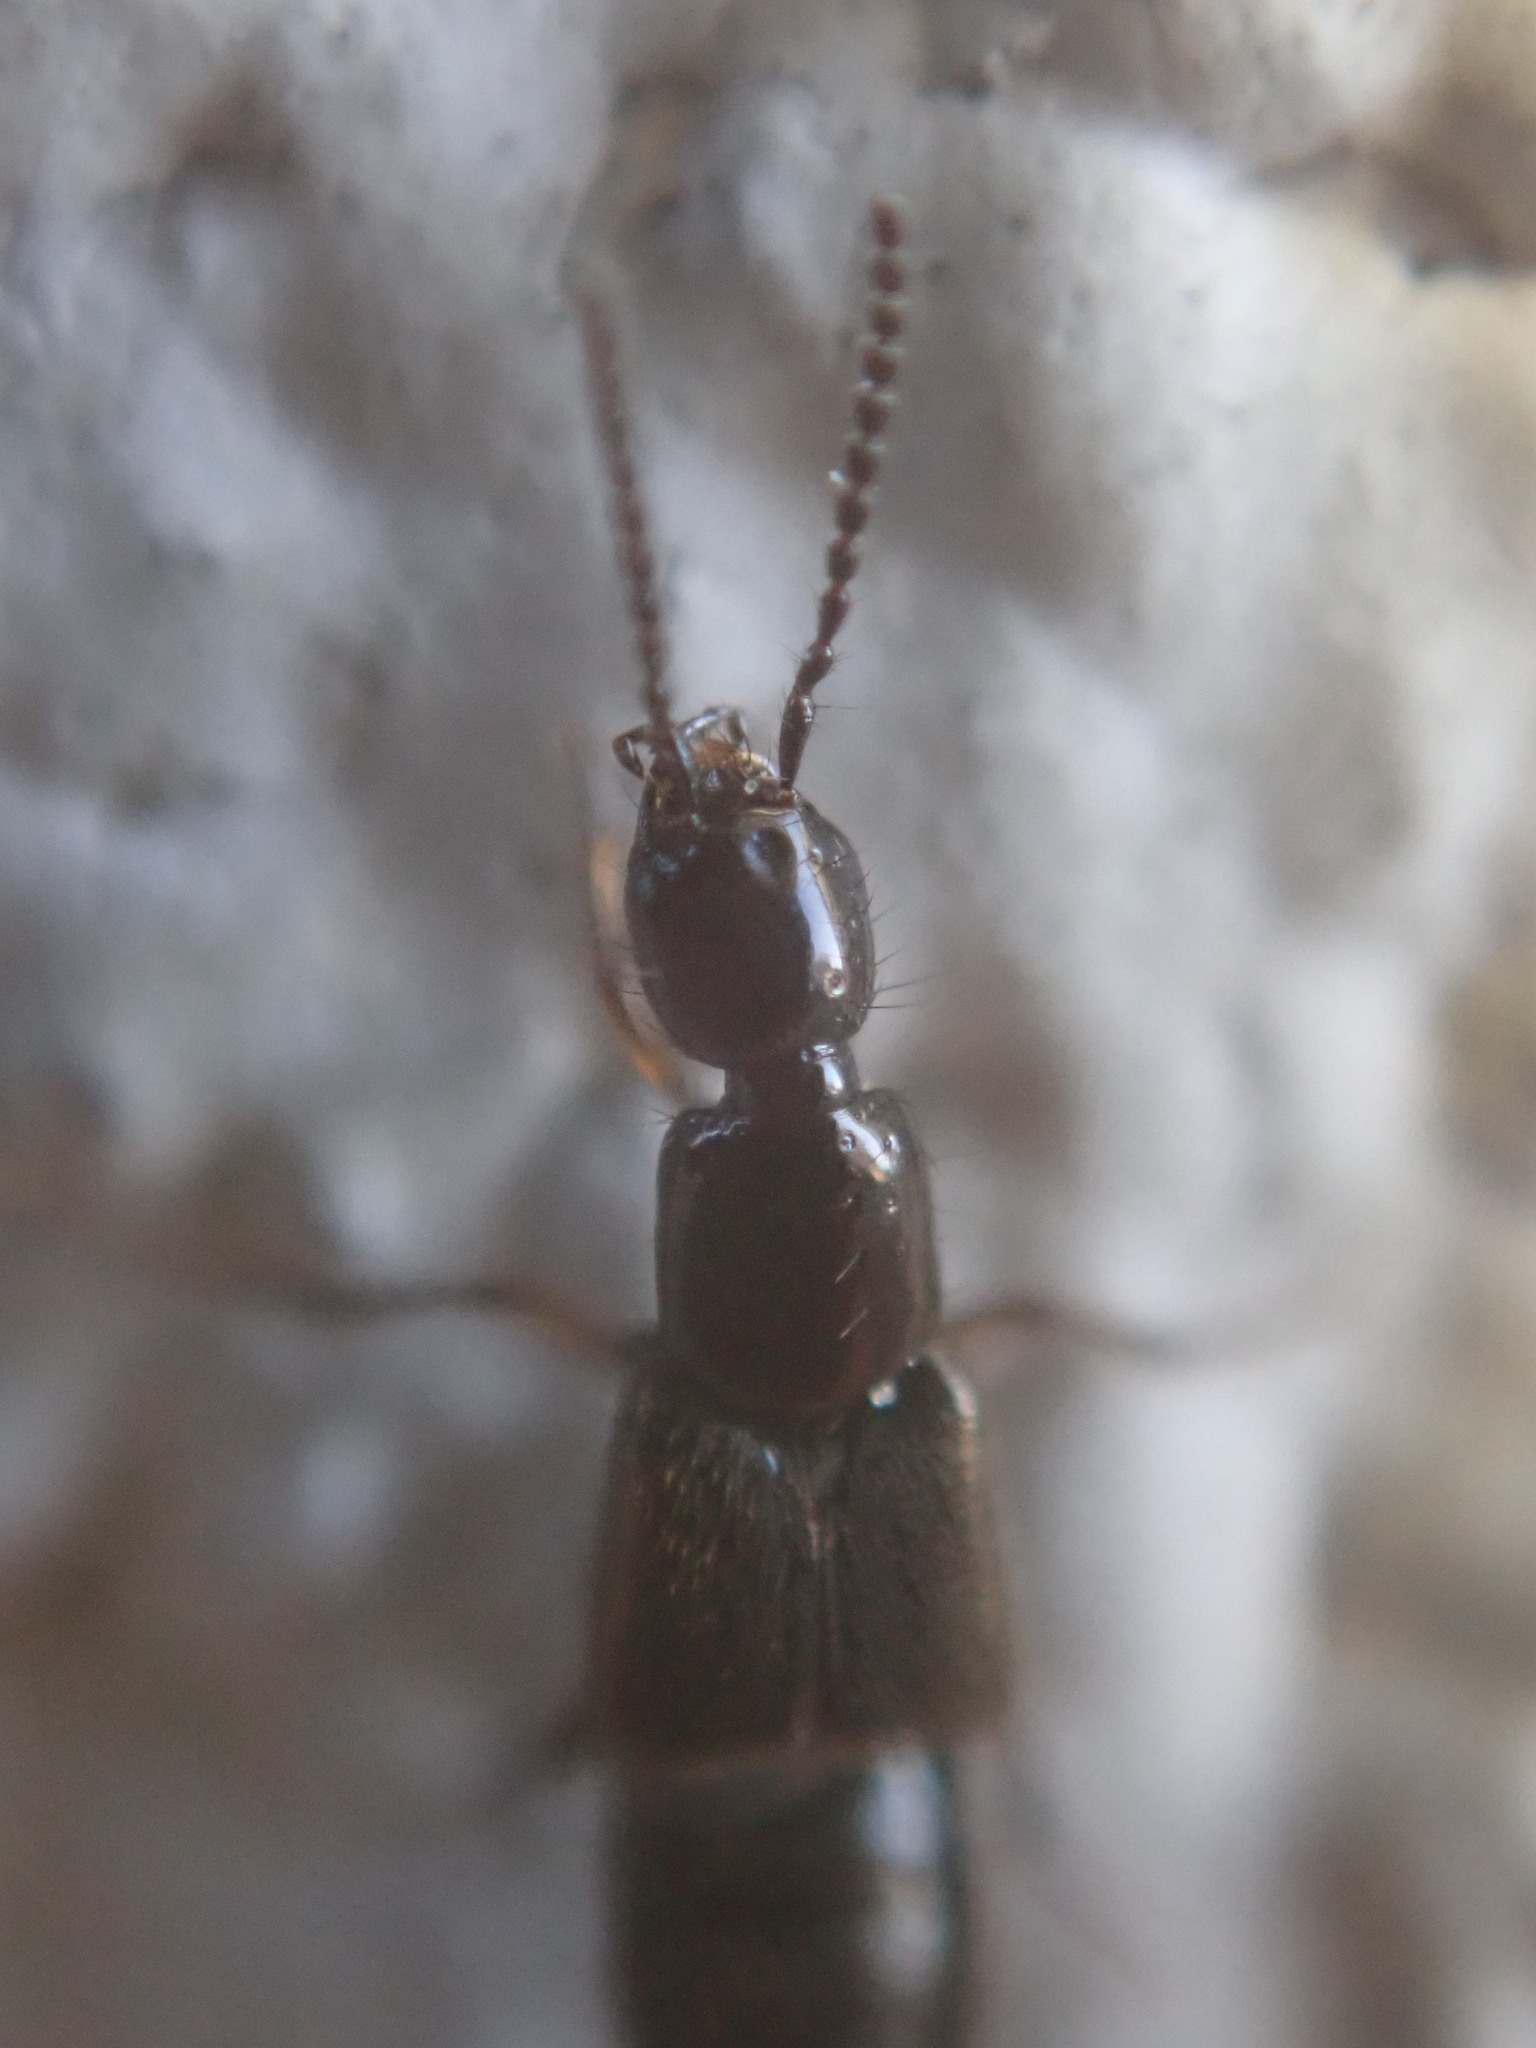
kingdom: Animalia
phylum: Arthropoda
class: Insecta
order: Coleoptera
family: Staphylinidae
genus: Bisnius
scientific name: Bisnius fimetarius
